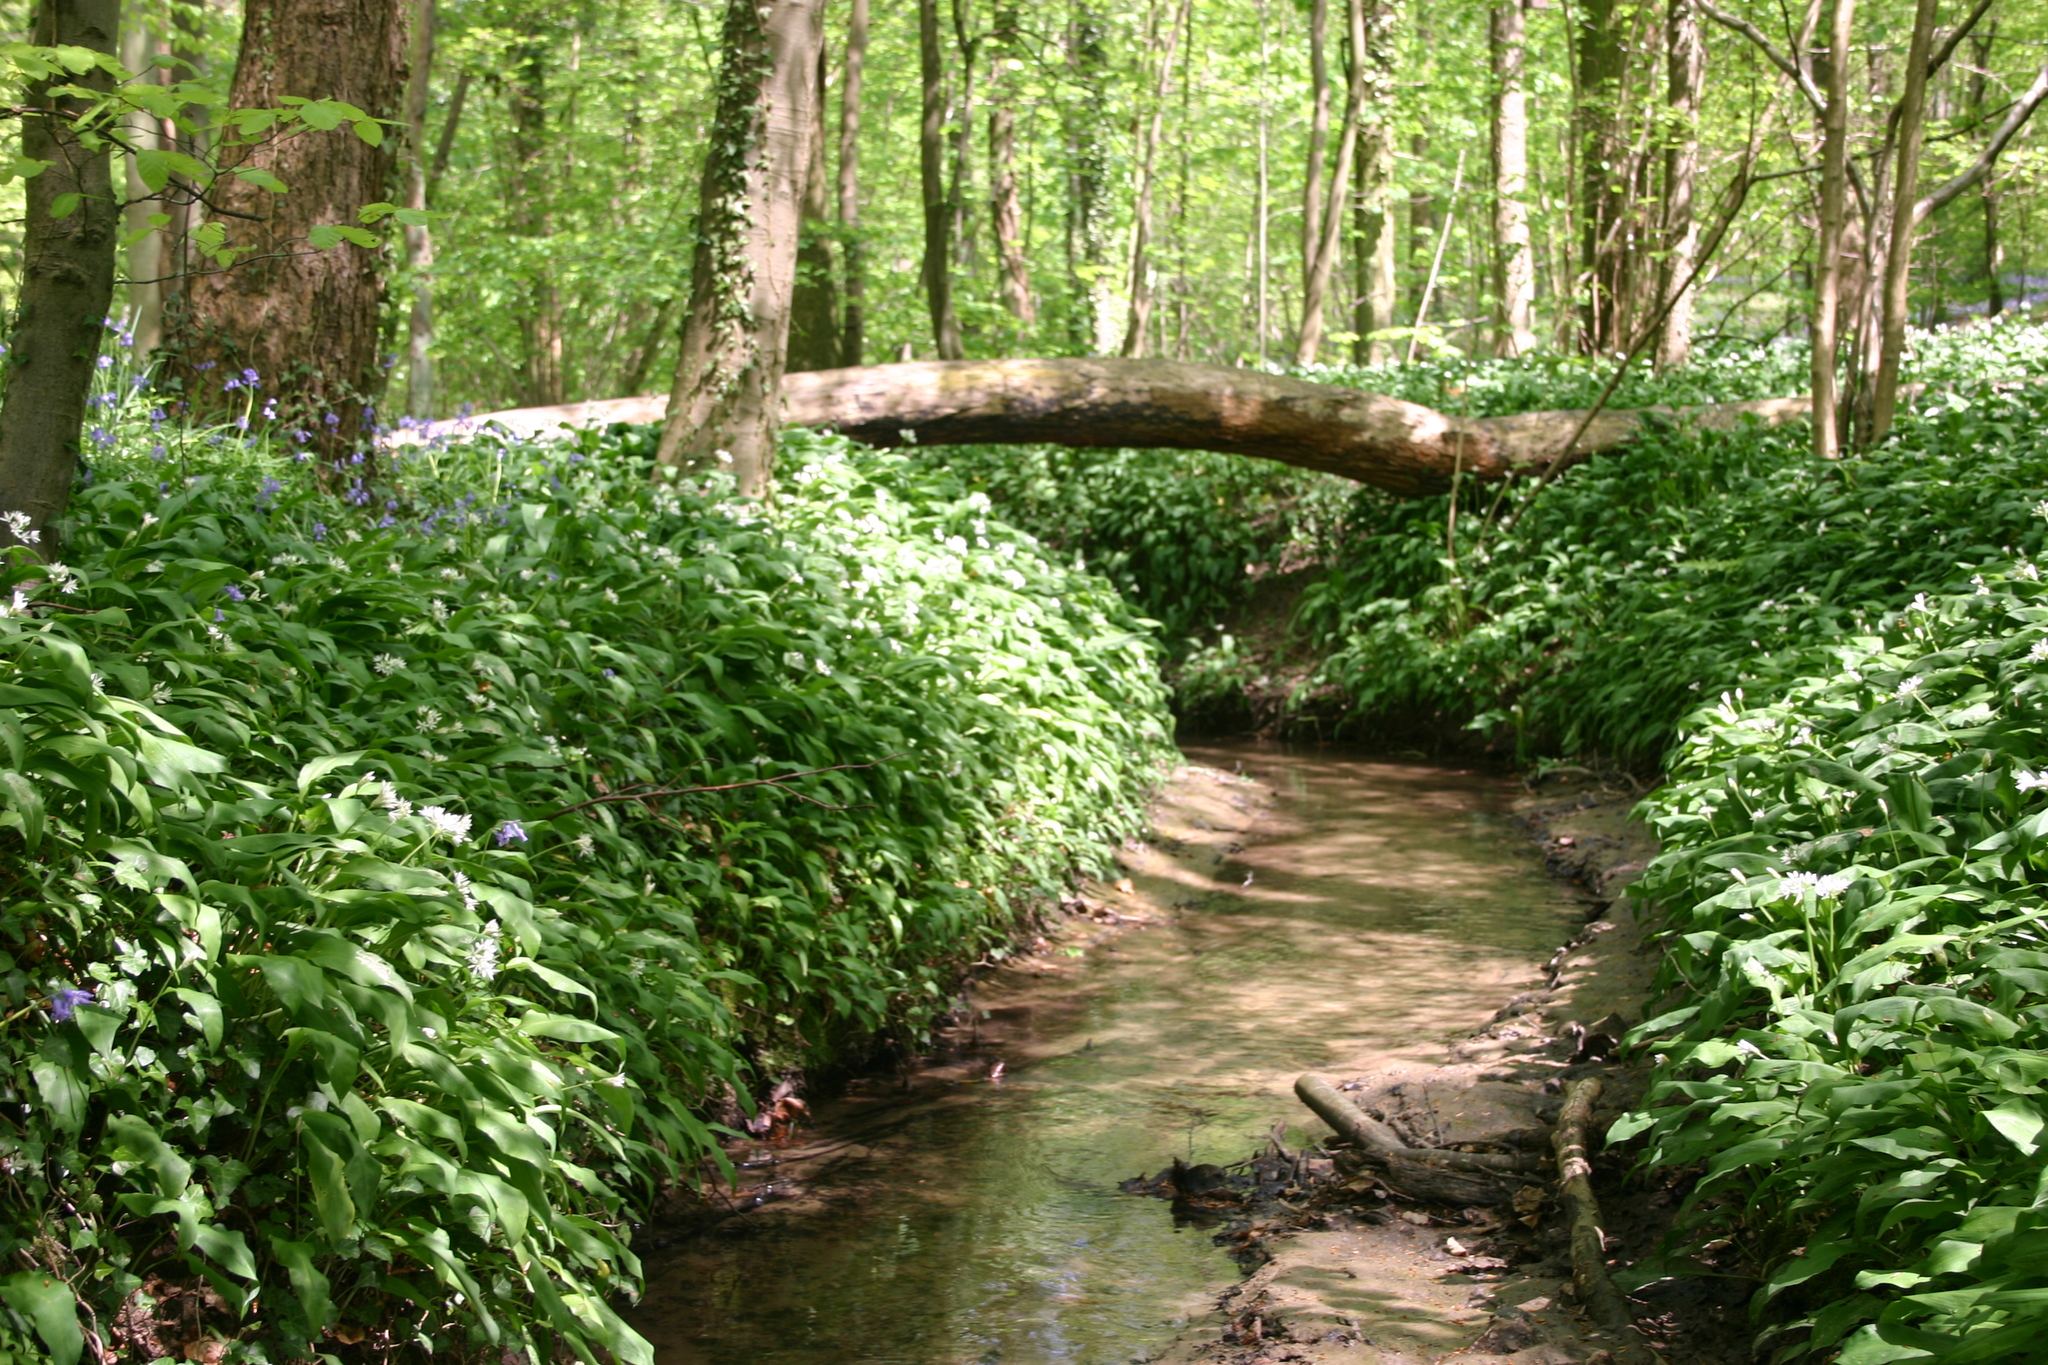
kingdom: Plantae
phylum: Tracheophyta
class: Liliopsida
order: Asparagales
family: Amaryllidaceae
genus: Allium
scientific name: Allium ursinum
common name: Ramsons
